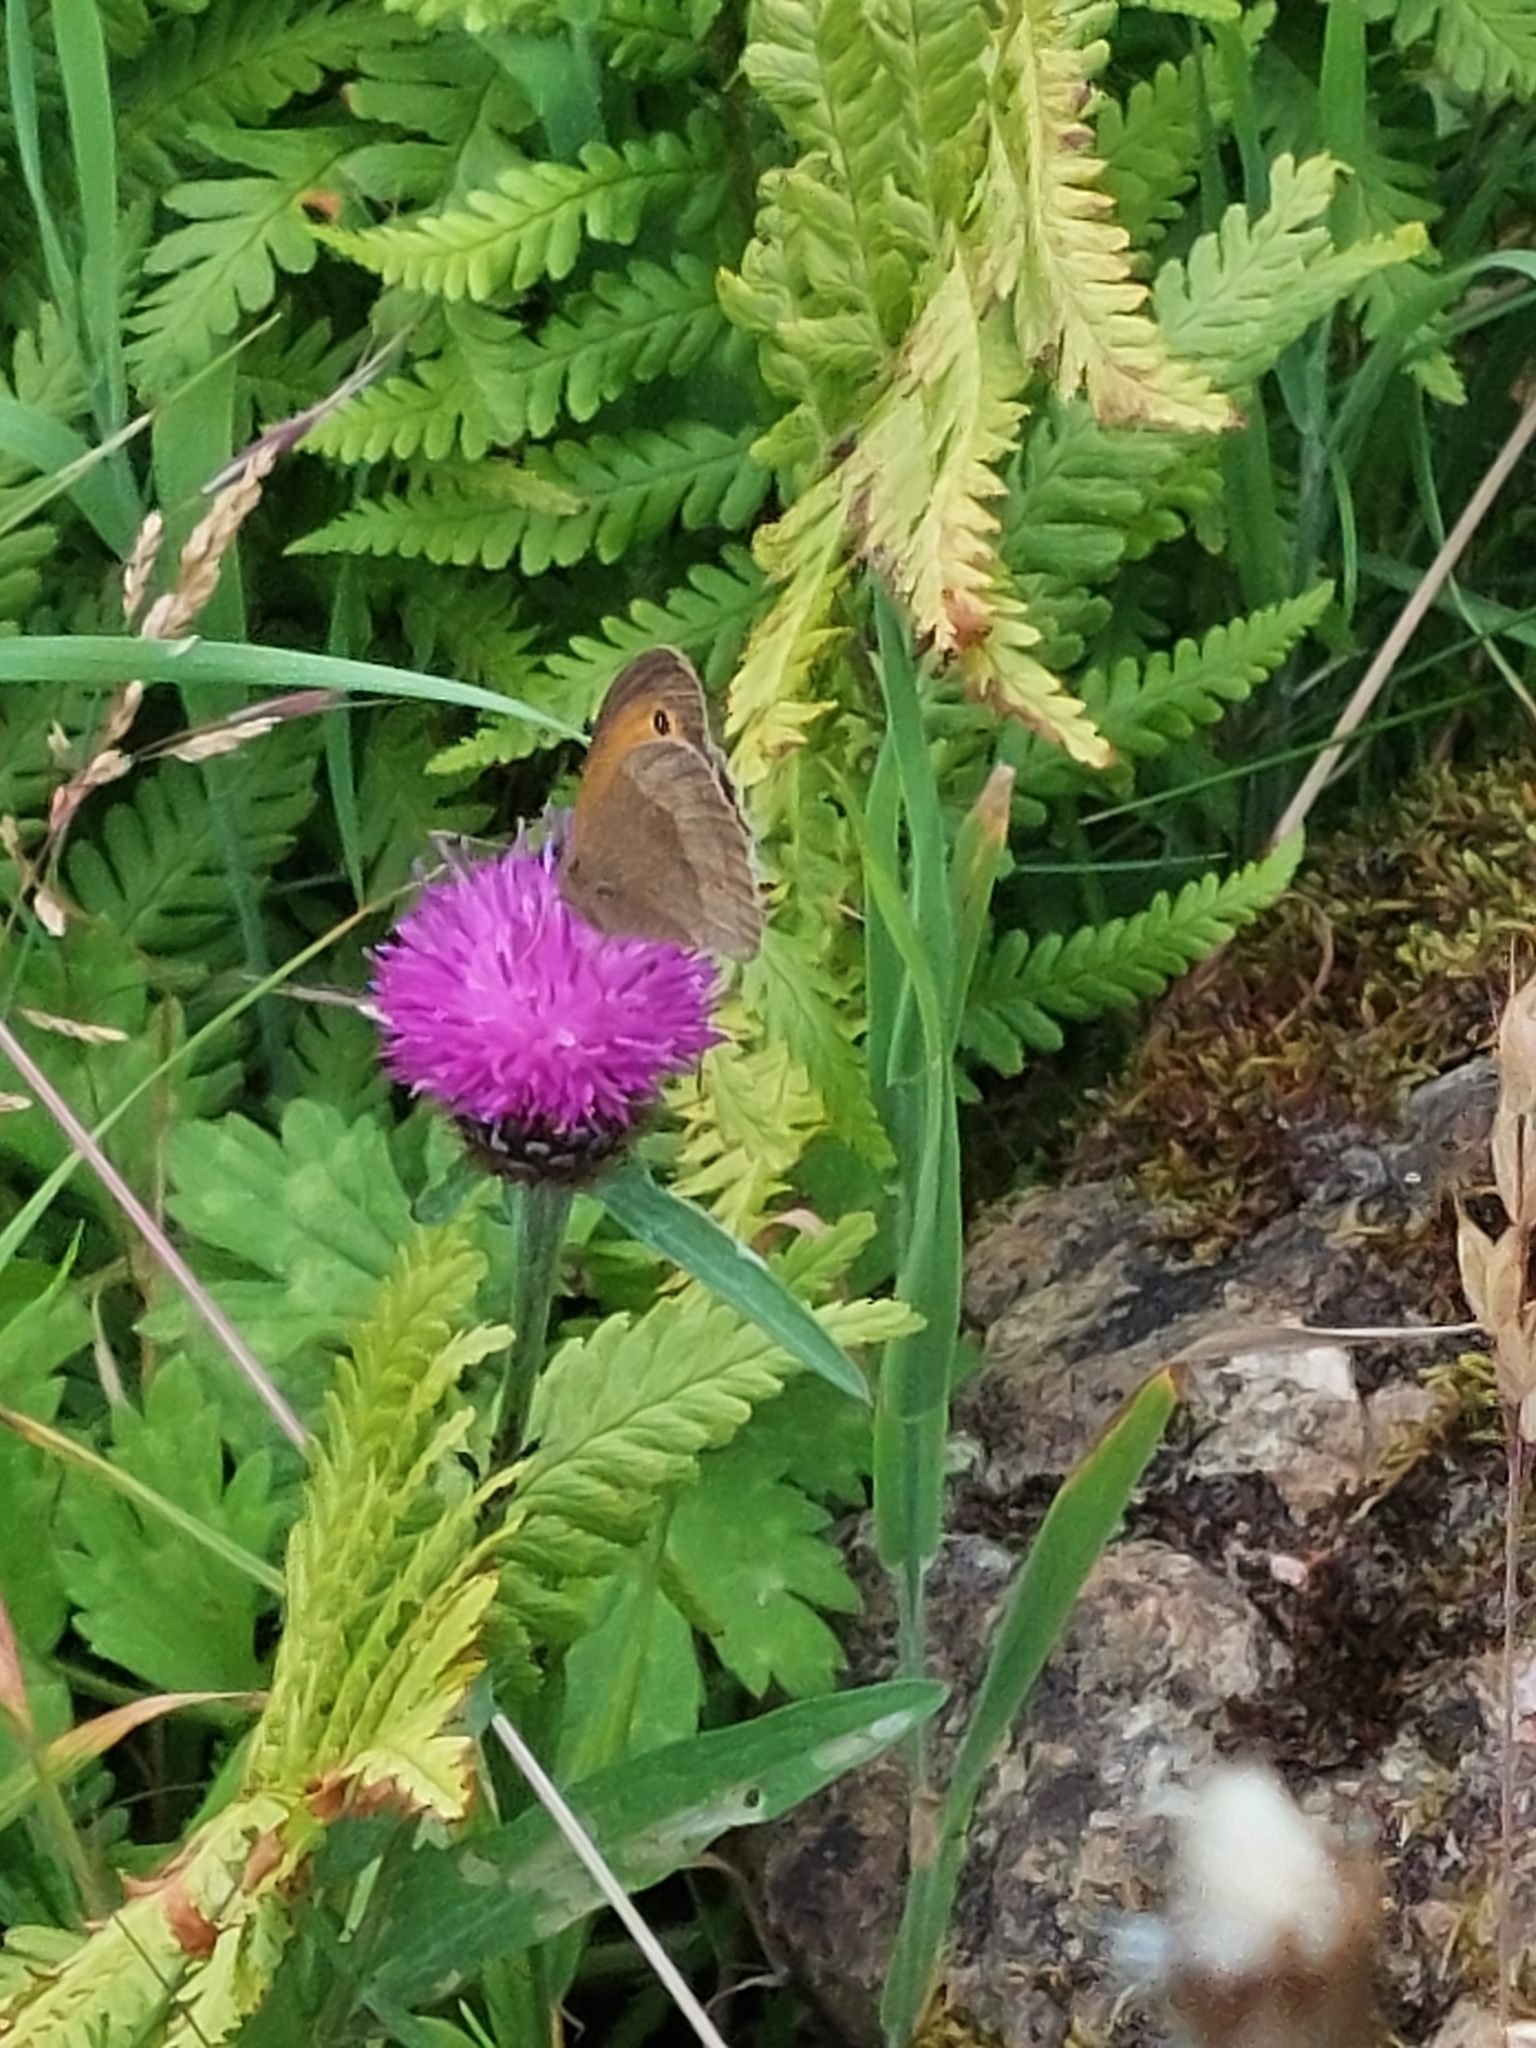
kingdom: Animalia
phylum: Arthropoda
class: Insecta
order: Lepidoptera
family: Nymphalidae
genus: Maniola
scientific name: Maniola jurtina
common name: Meadow brown
